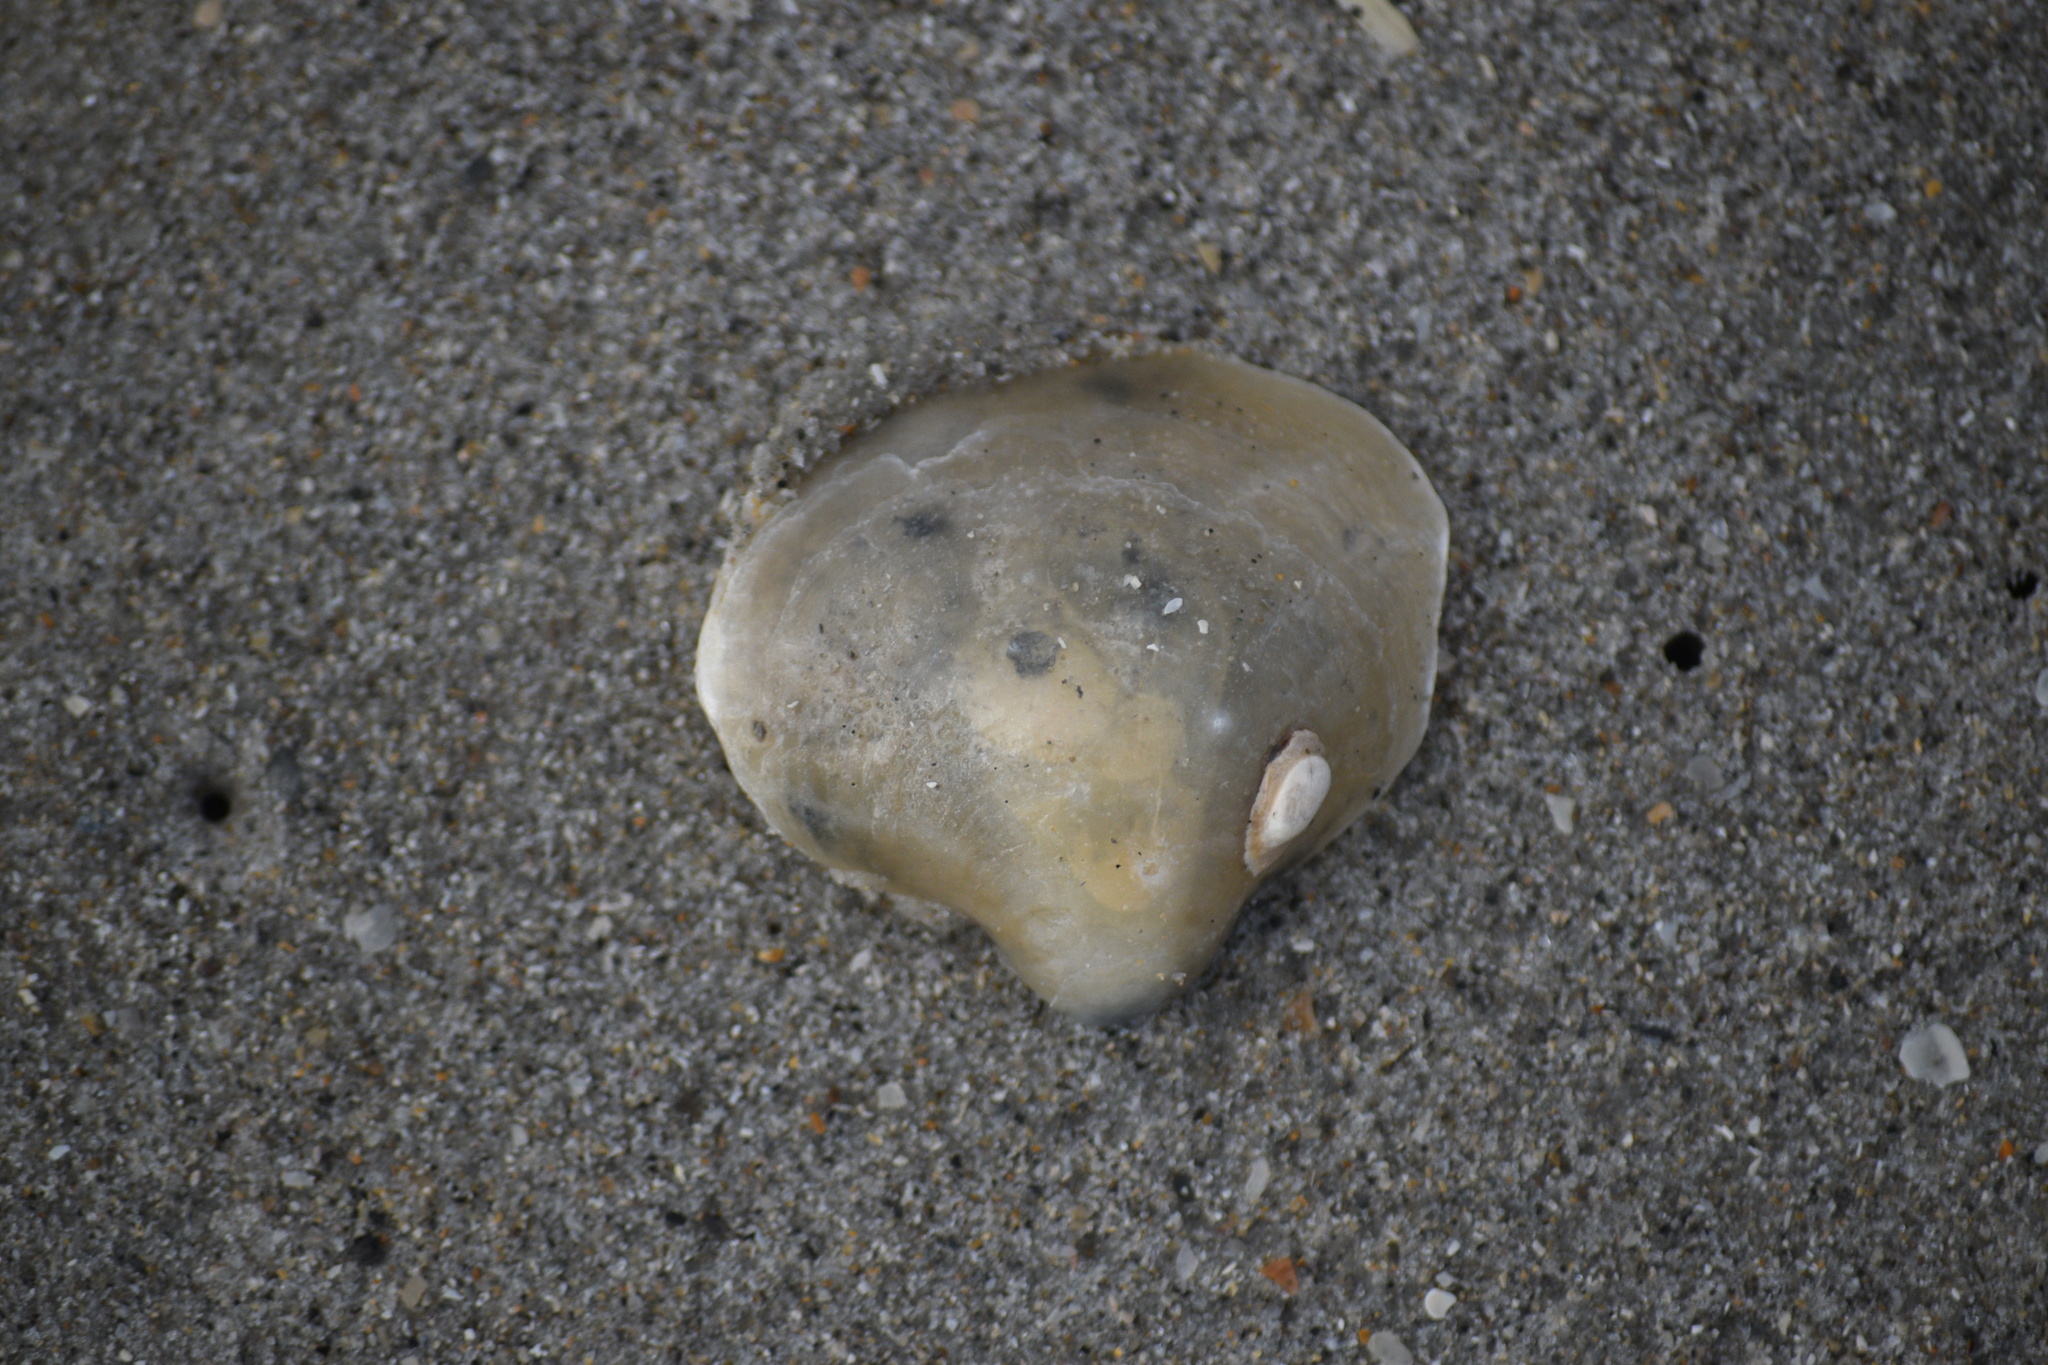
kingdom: Animalia
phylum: Mollusca
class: Bivalvia
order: Pectinida
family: Anomiidae
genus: Anomia
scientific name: Anomia simplex
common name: Common jingle shell
